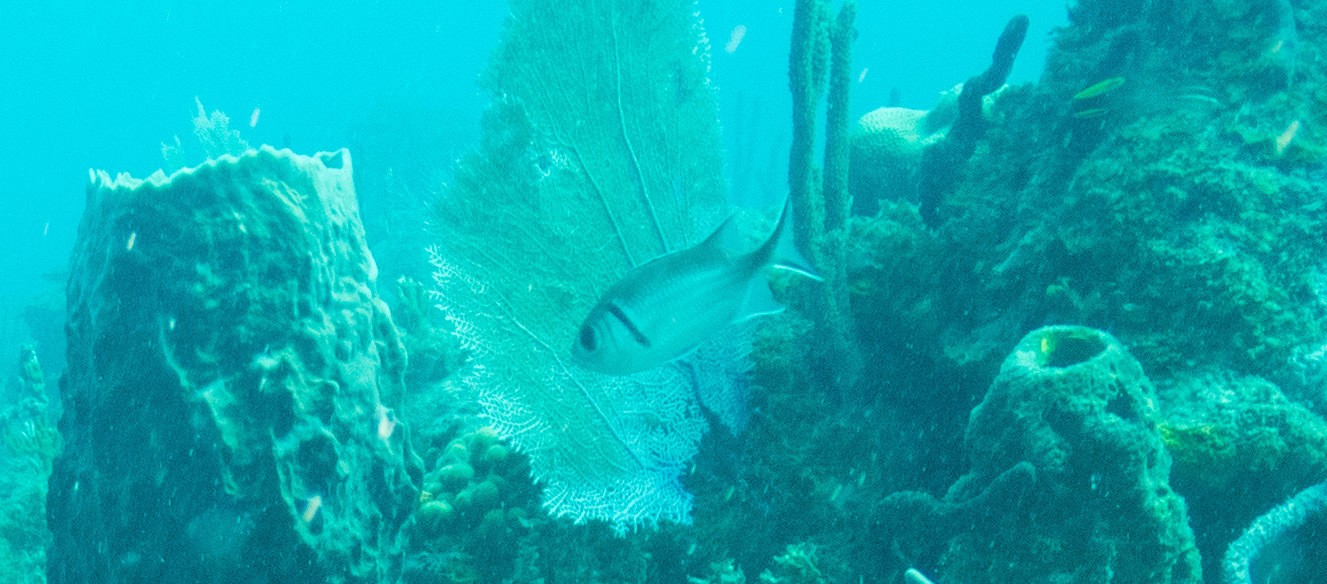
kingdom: Animalia
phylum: Chordata
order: Beryciformes
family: Holocentridae
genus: Myripristis
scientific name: Myripristis jacobus
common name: Blackbar soldierfish
